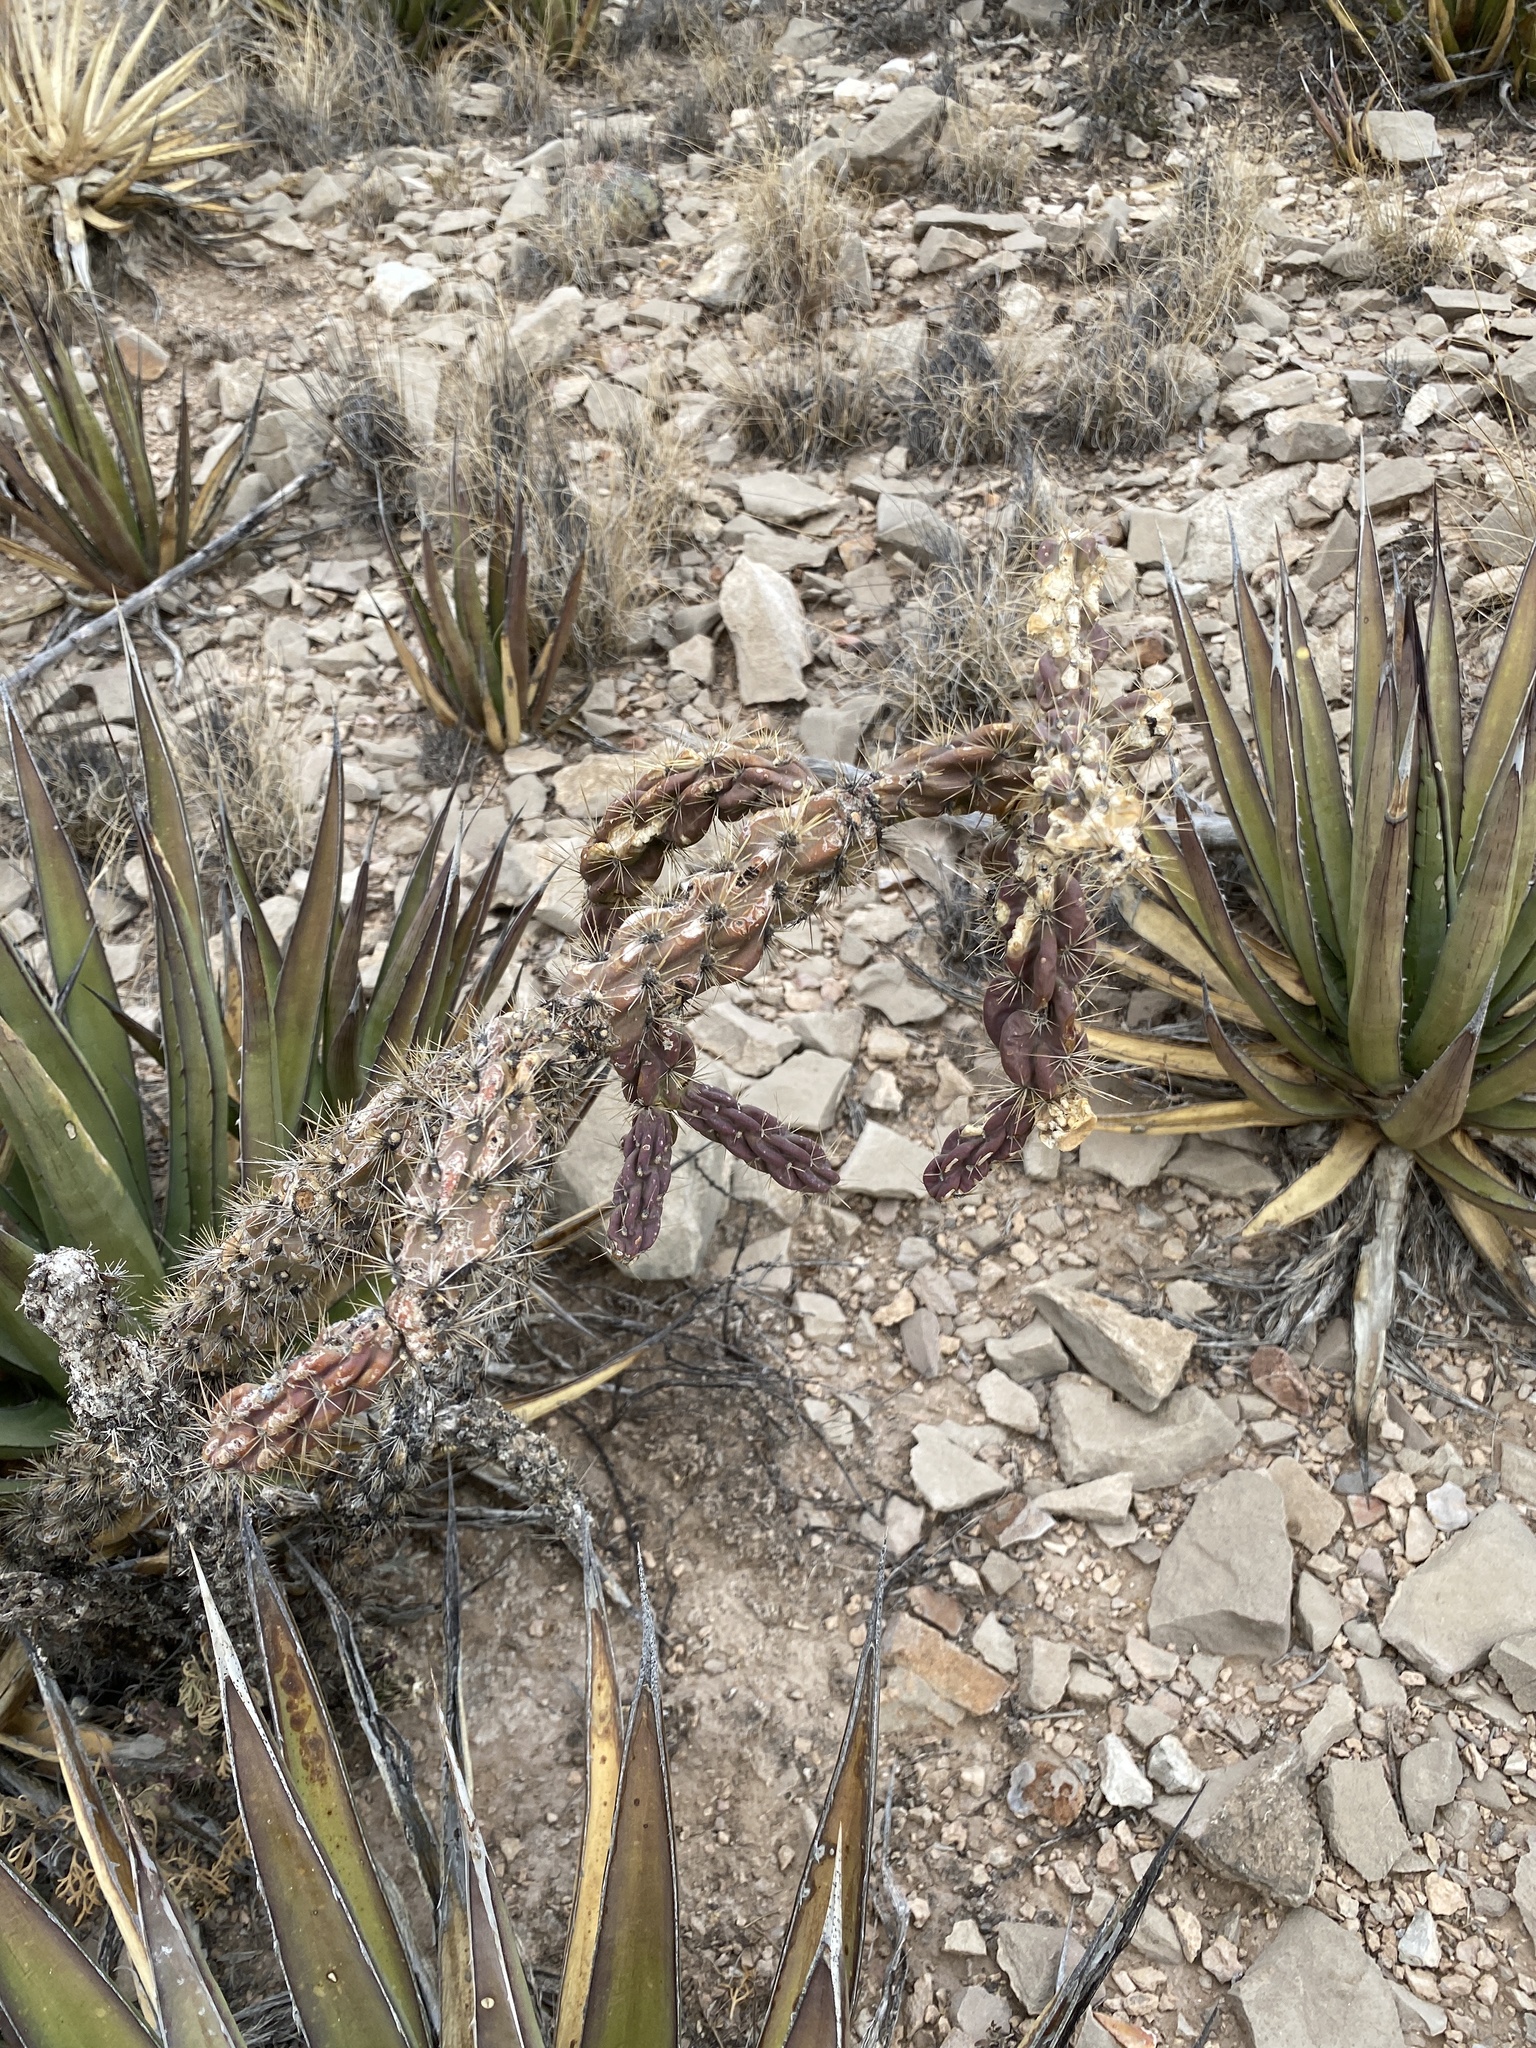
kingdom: Plantae
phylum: Tracheophyta
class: Magnoliopsida
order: Caryophyllales
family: Cactaceae
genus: Cylindropuntia
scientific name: Cylindropuntia imbricata
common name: Candelabrum cactus
